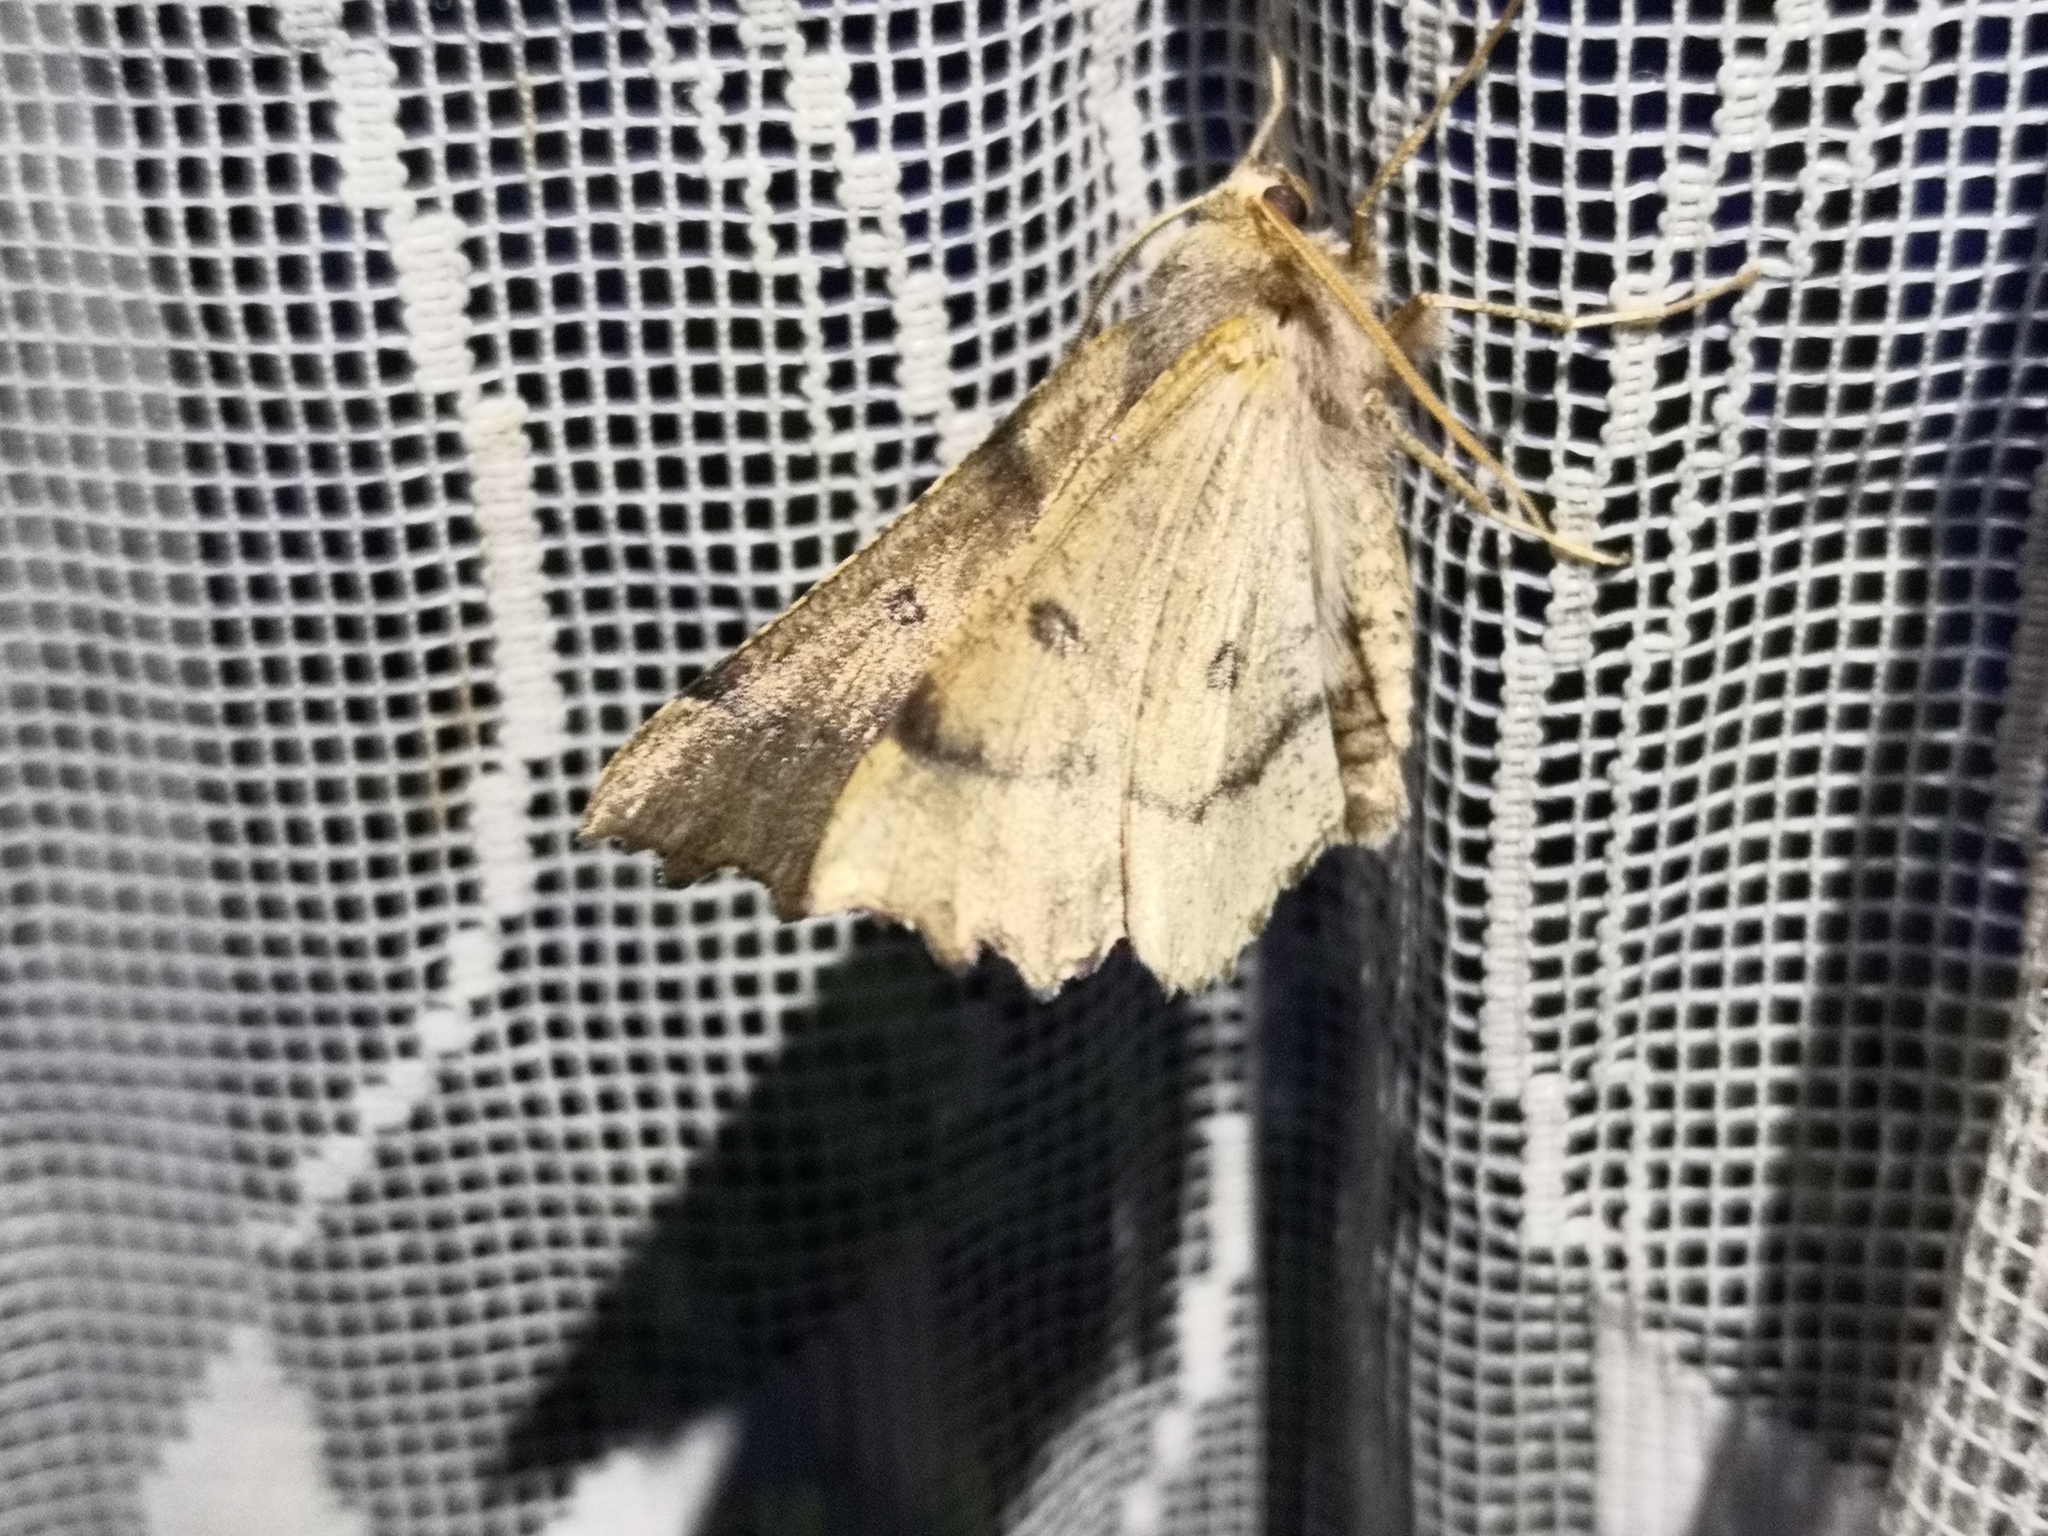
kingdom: Animalia
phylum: Arthropoda
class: Insecta
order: Lepidoptera
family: Geometridae
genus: Odontopera
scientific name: Odontopera bidentata
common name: Scalloped hazel
